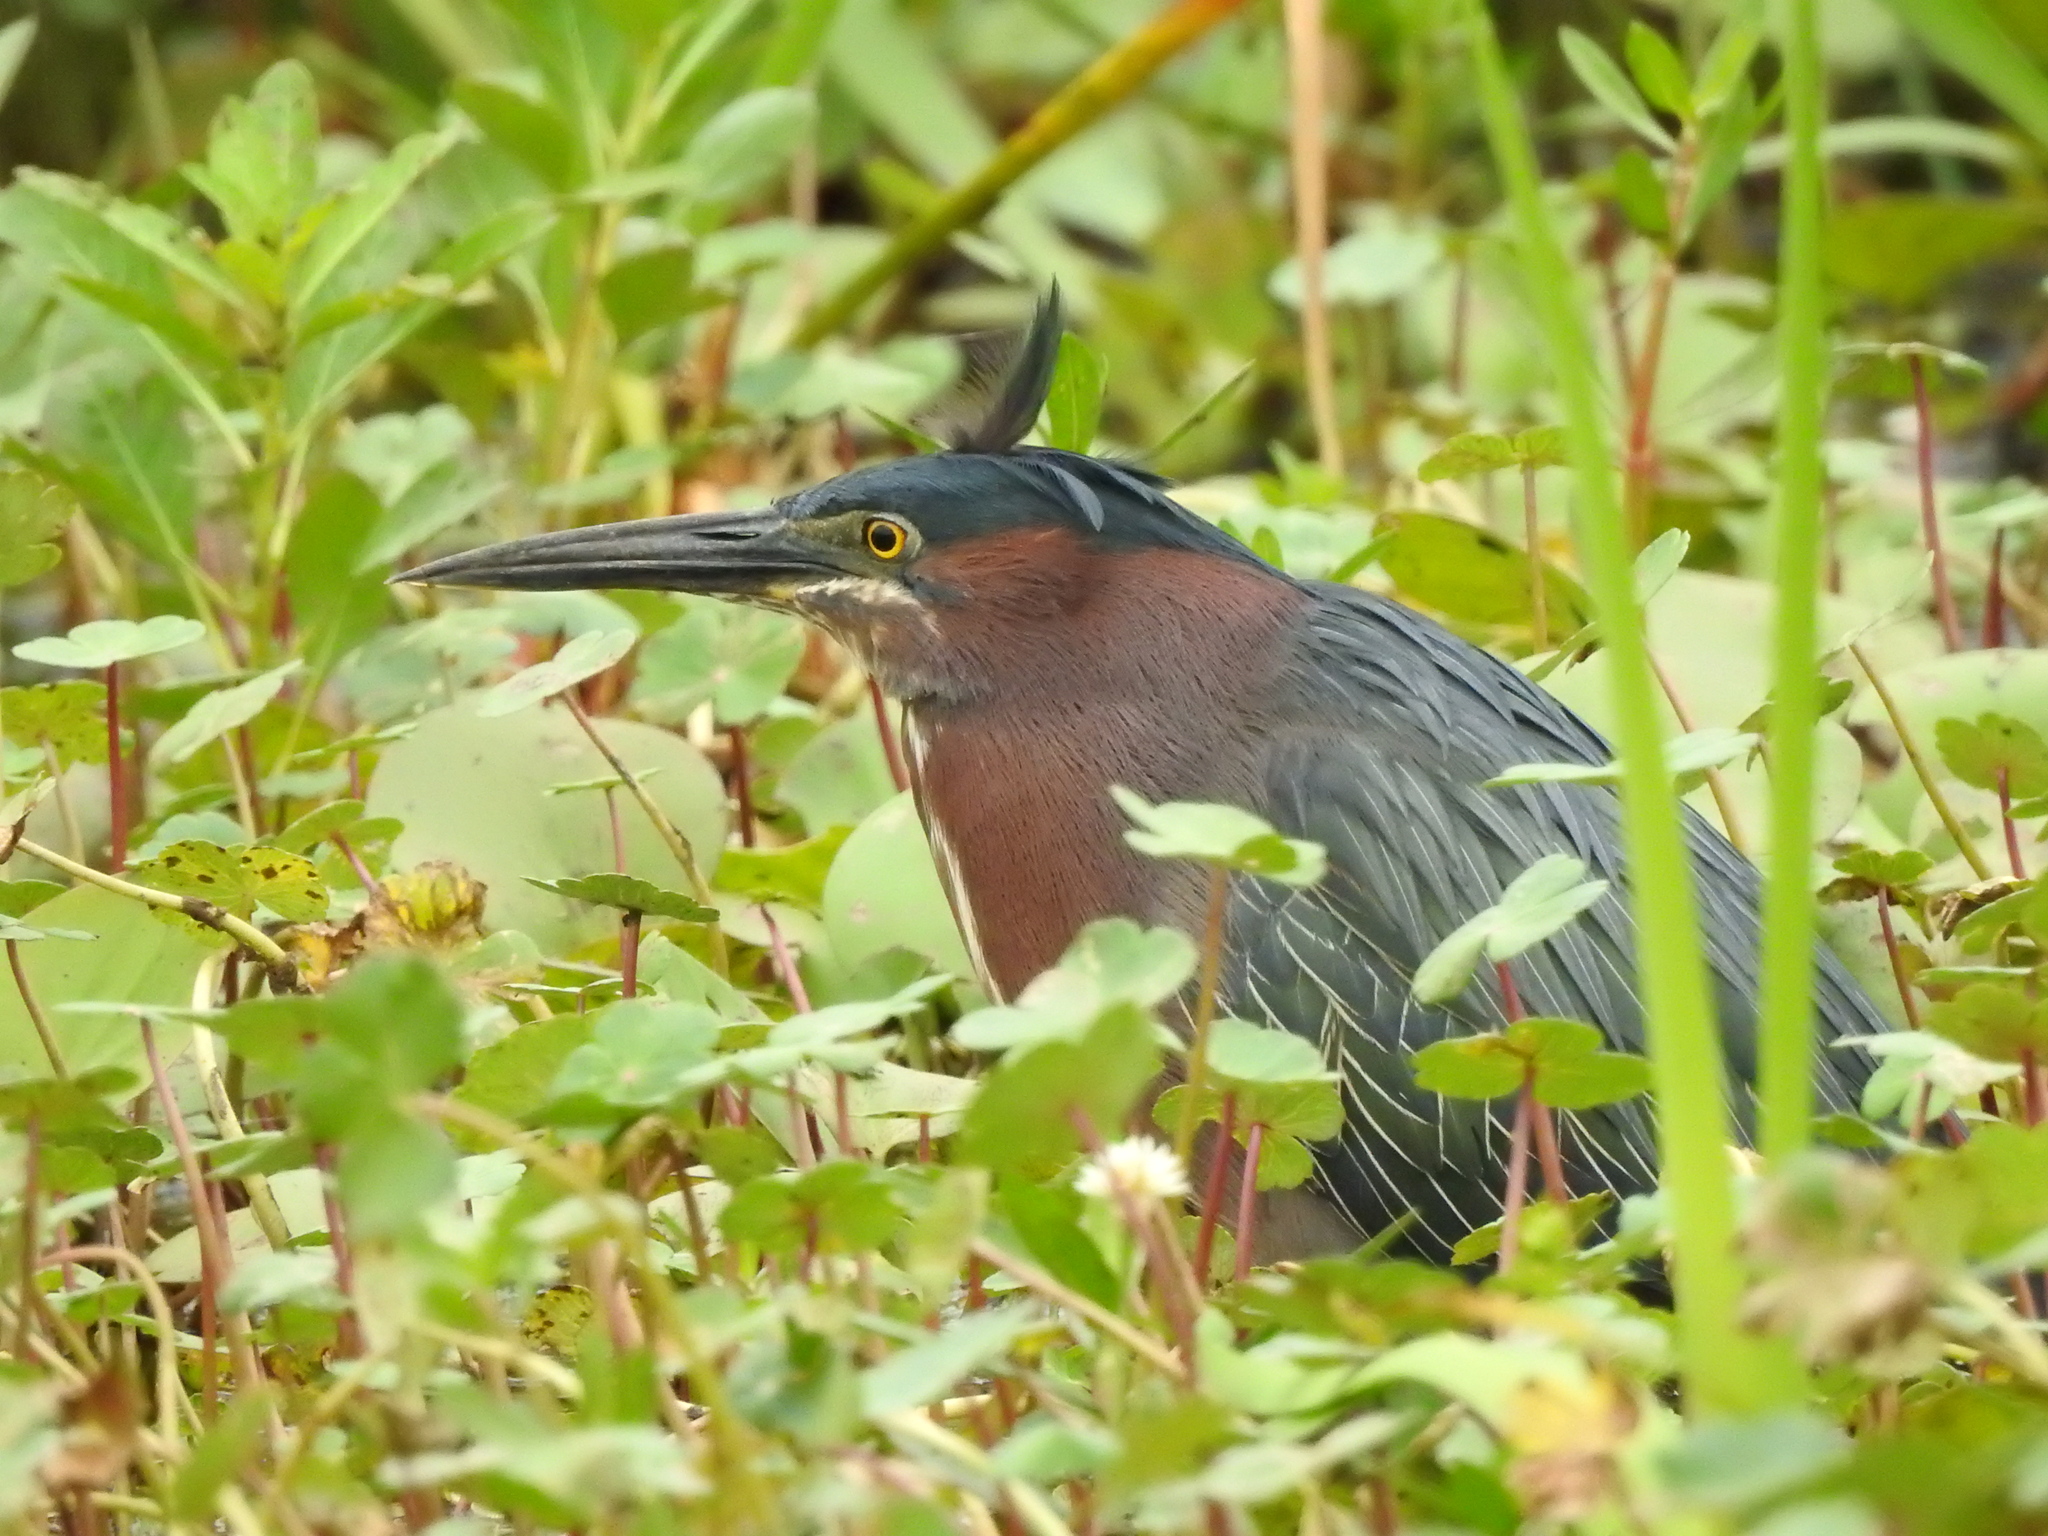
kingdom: Animalia
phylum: Chordata
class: Aves
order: Pelecaniformes
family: Ardeidae
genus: Butorides
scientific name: Butorides virescens
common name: Green heron
